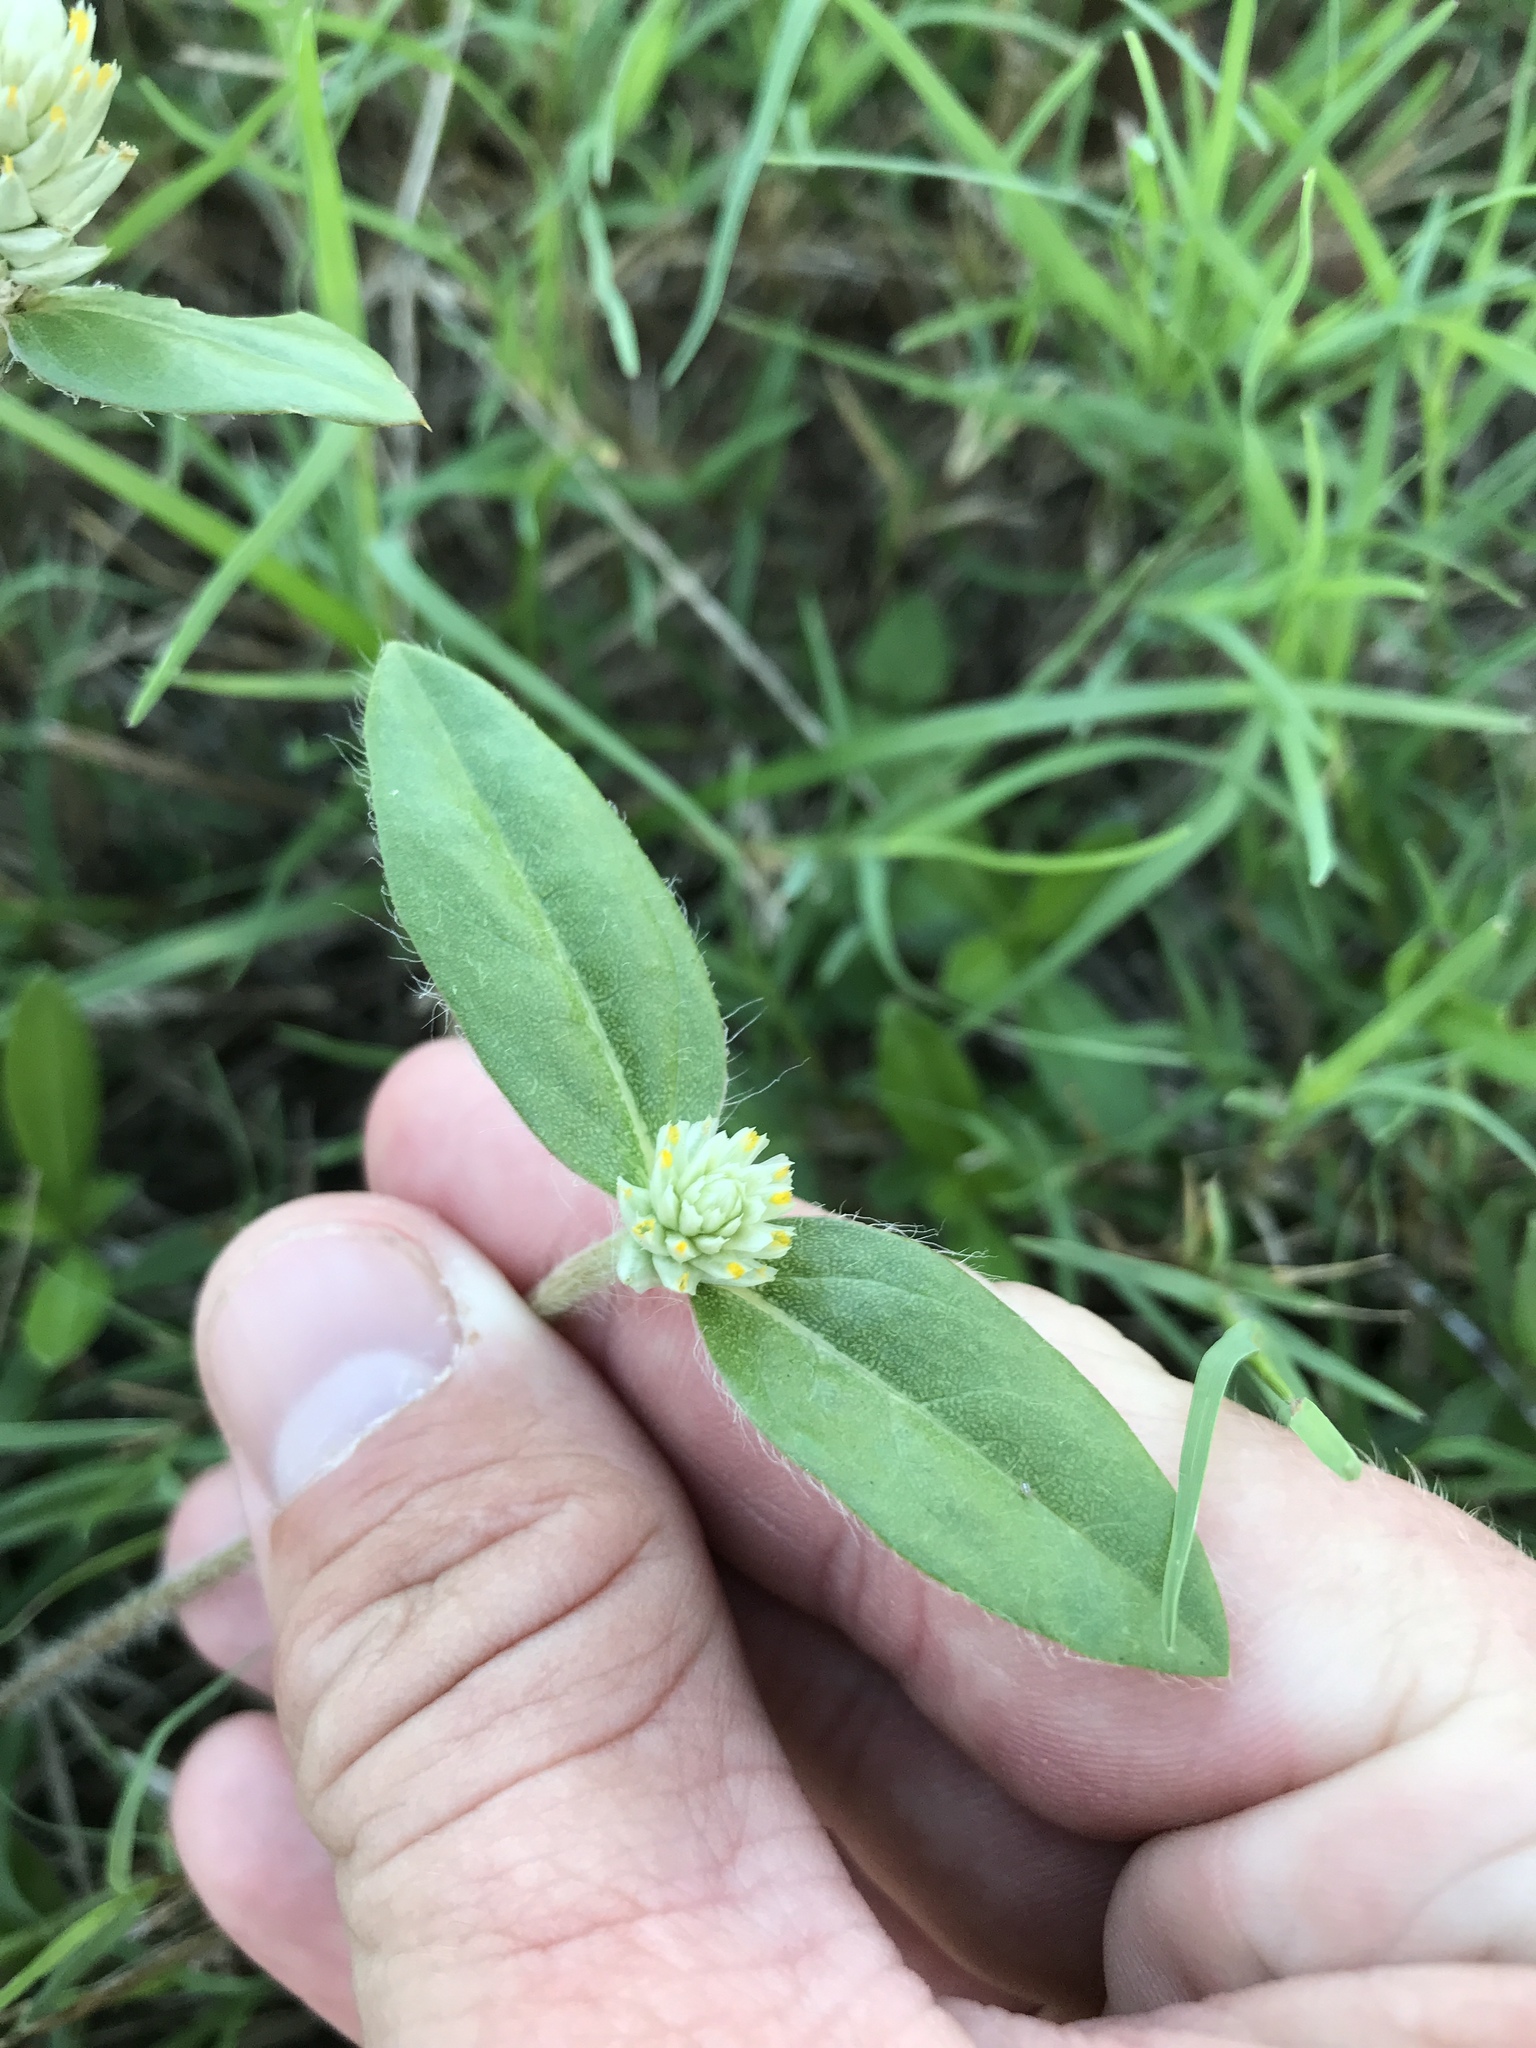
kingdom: Plantae
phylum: Tracheophyta
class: Magnoliopsida
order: Caryophyllales
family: Amaranthaceae
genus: Gomphrena
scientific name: Gomphrena serrata
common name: Arrasa con todo
